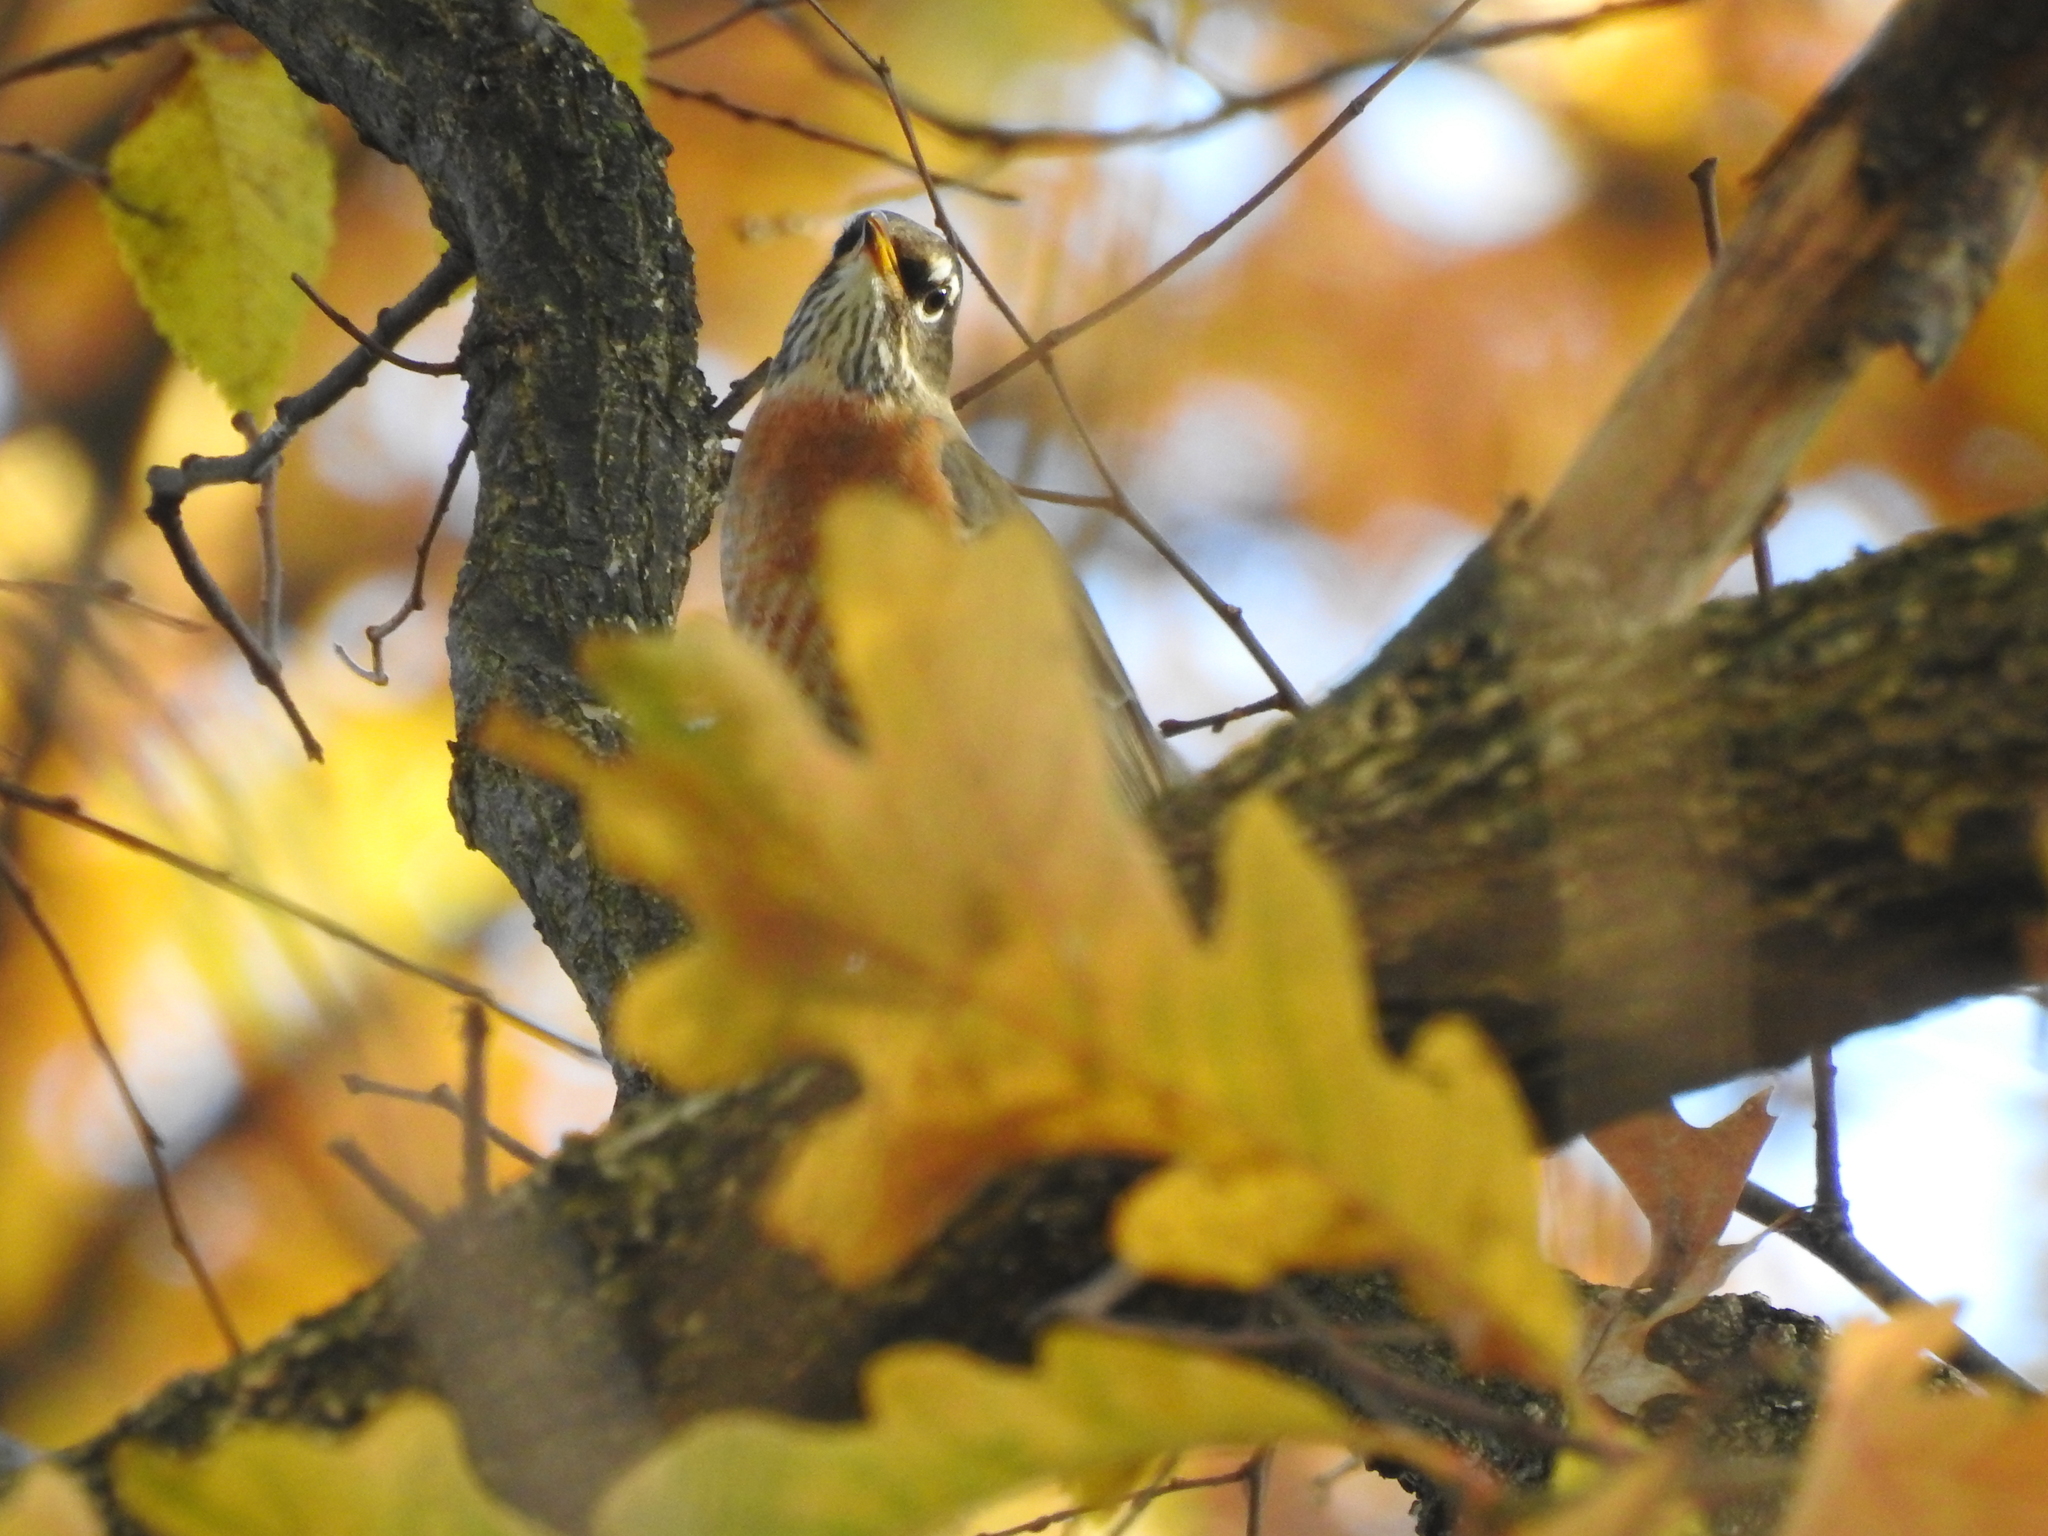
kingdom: Animalia
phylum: Chordata
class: Aves
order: Passeriformes
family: Turdidae
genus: Turdus
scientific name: Turdus migratorius
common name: American robin
